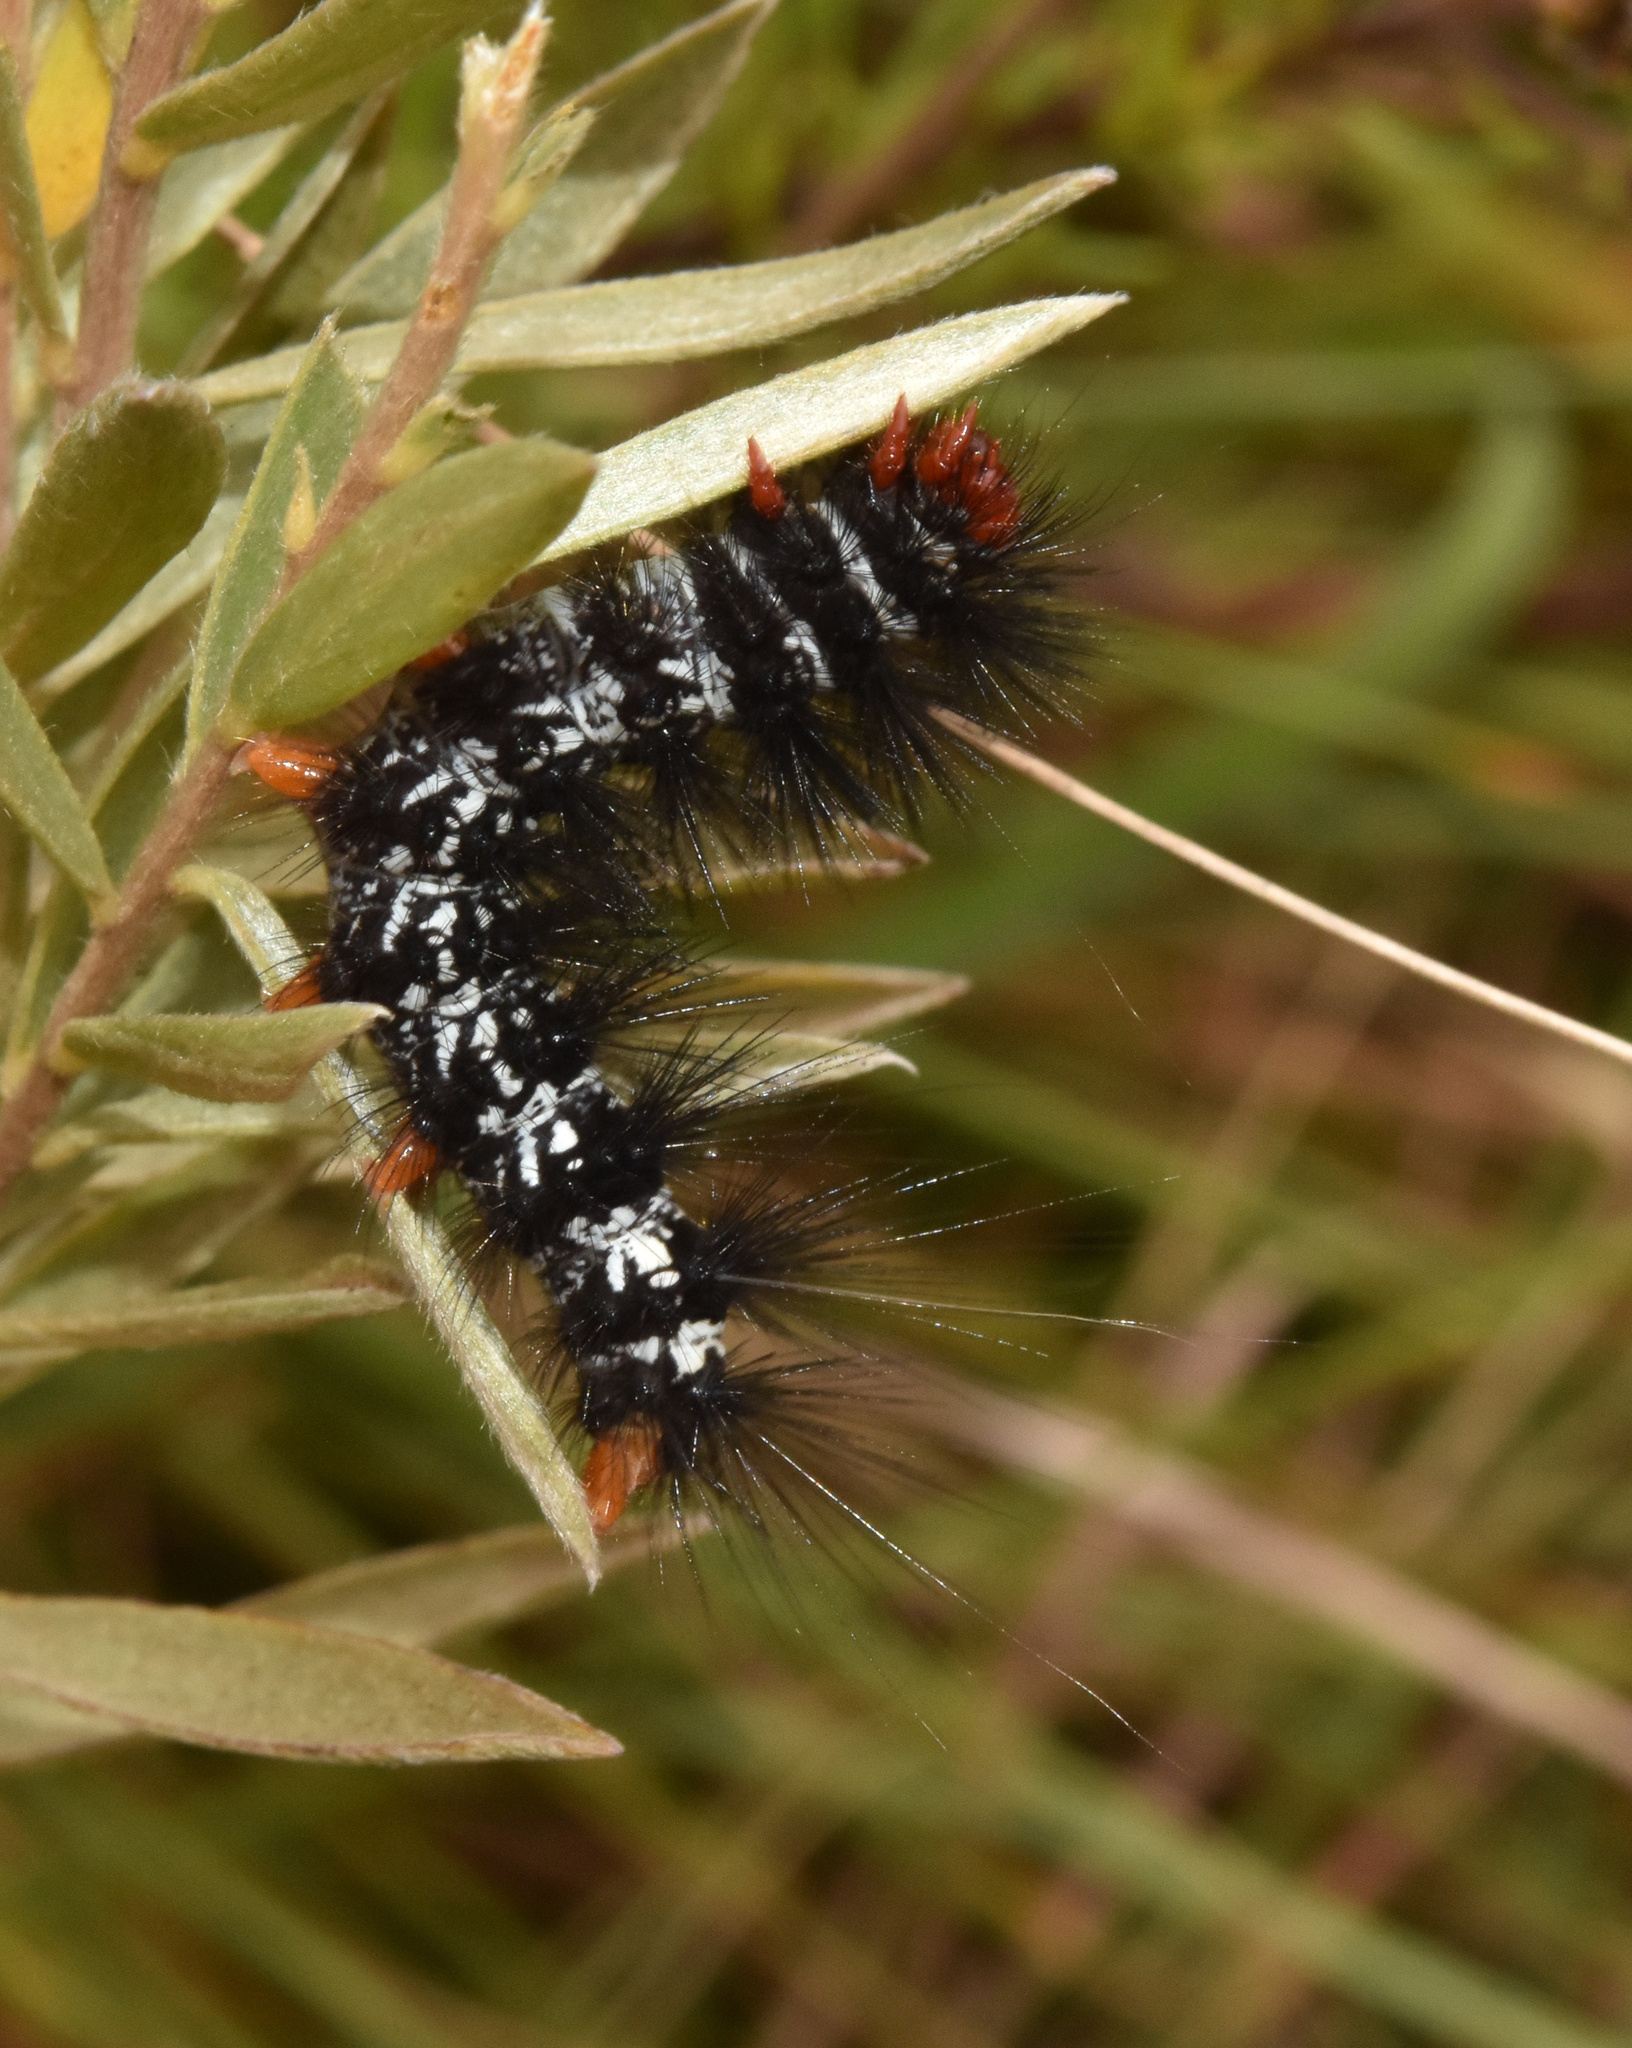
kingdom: Animalia
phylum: Arthropoda
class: Insecta
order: Lepidoptera
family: Erebidae
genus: Afromurzinia
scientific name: Afromurzinia lutescens
